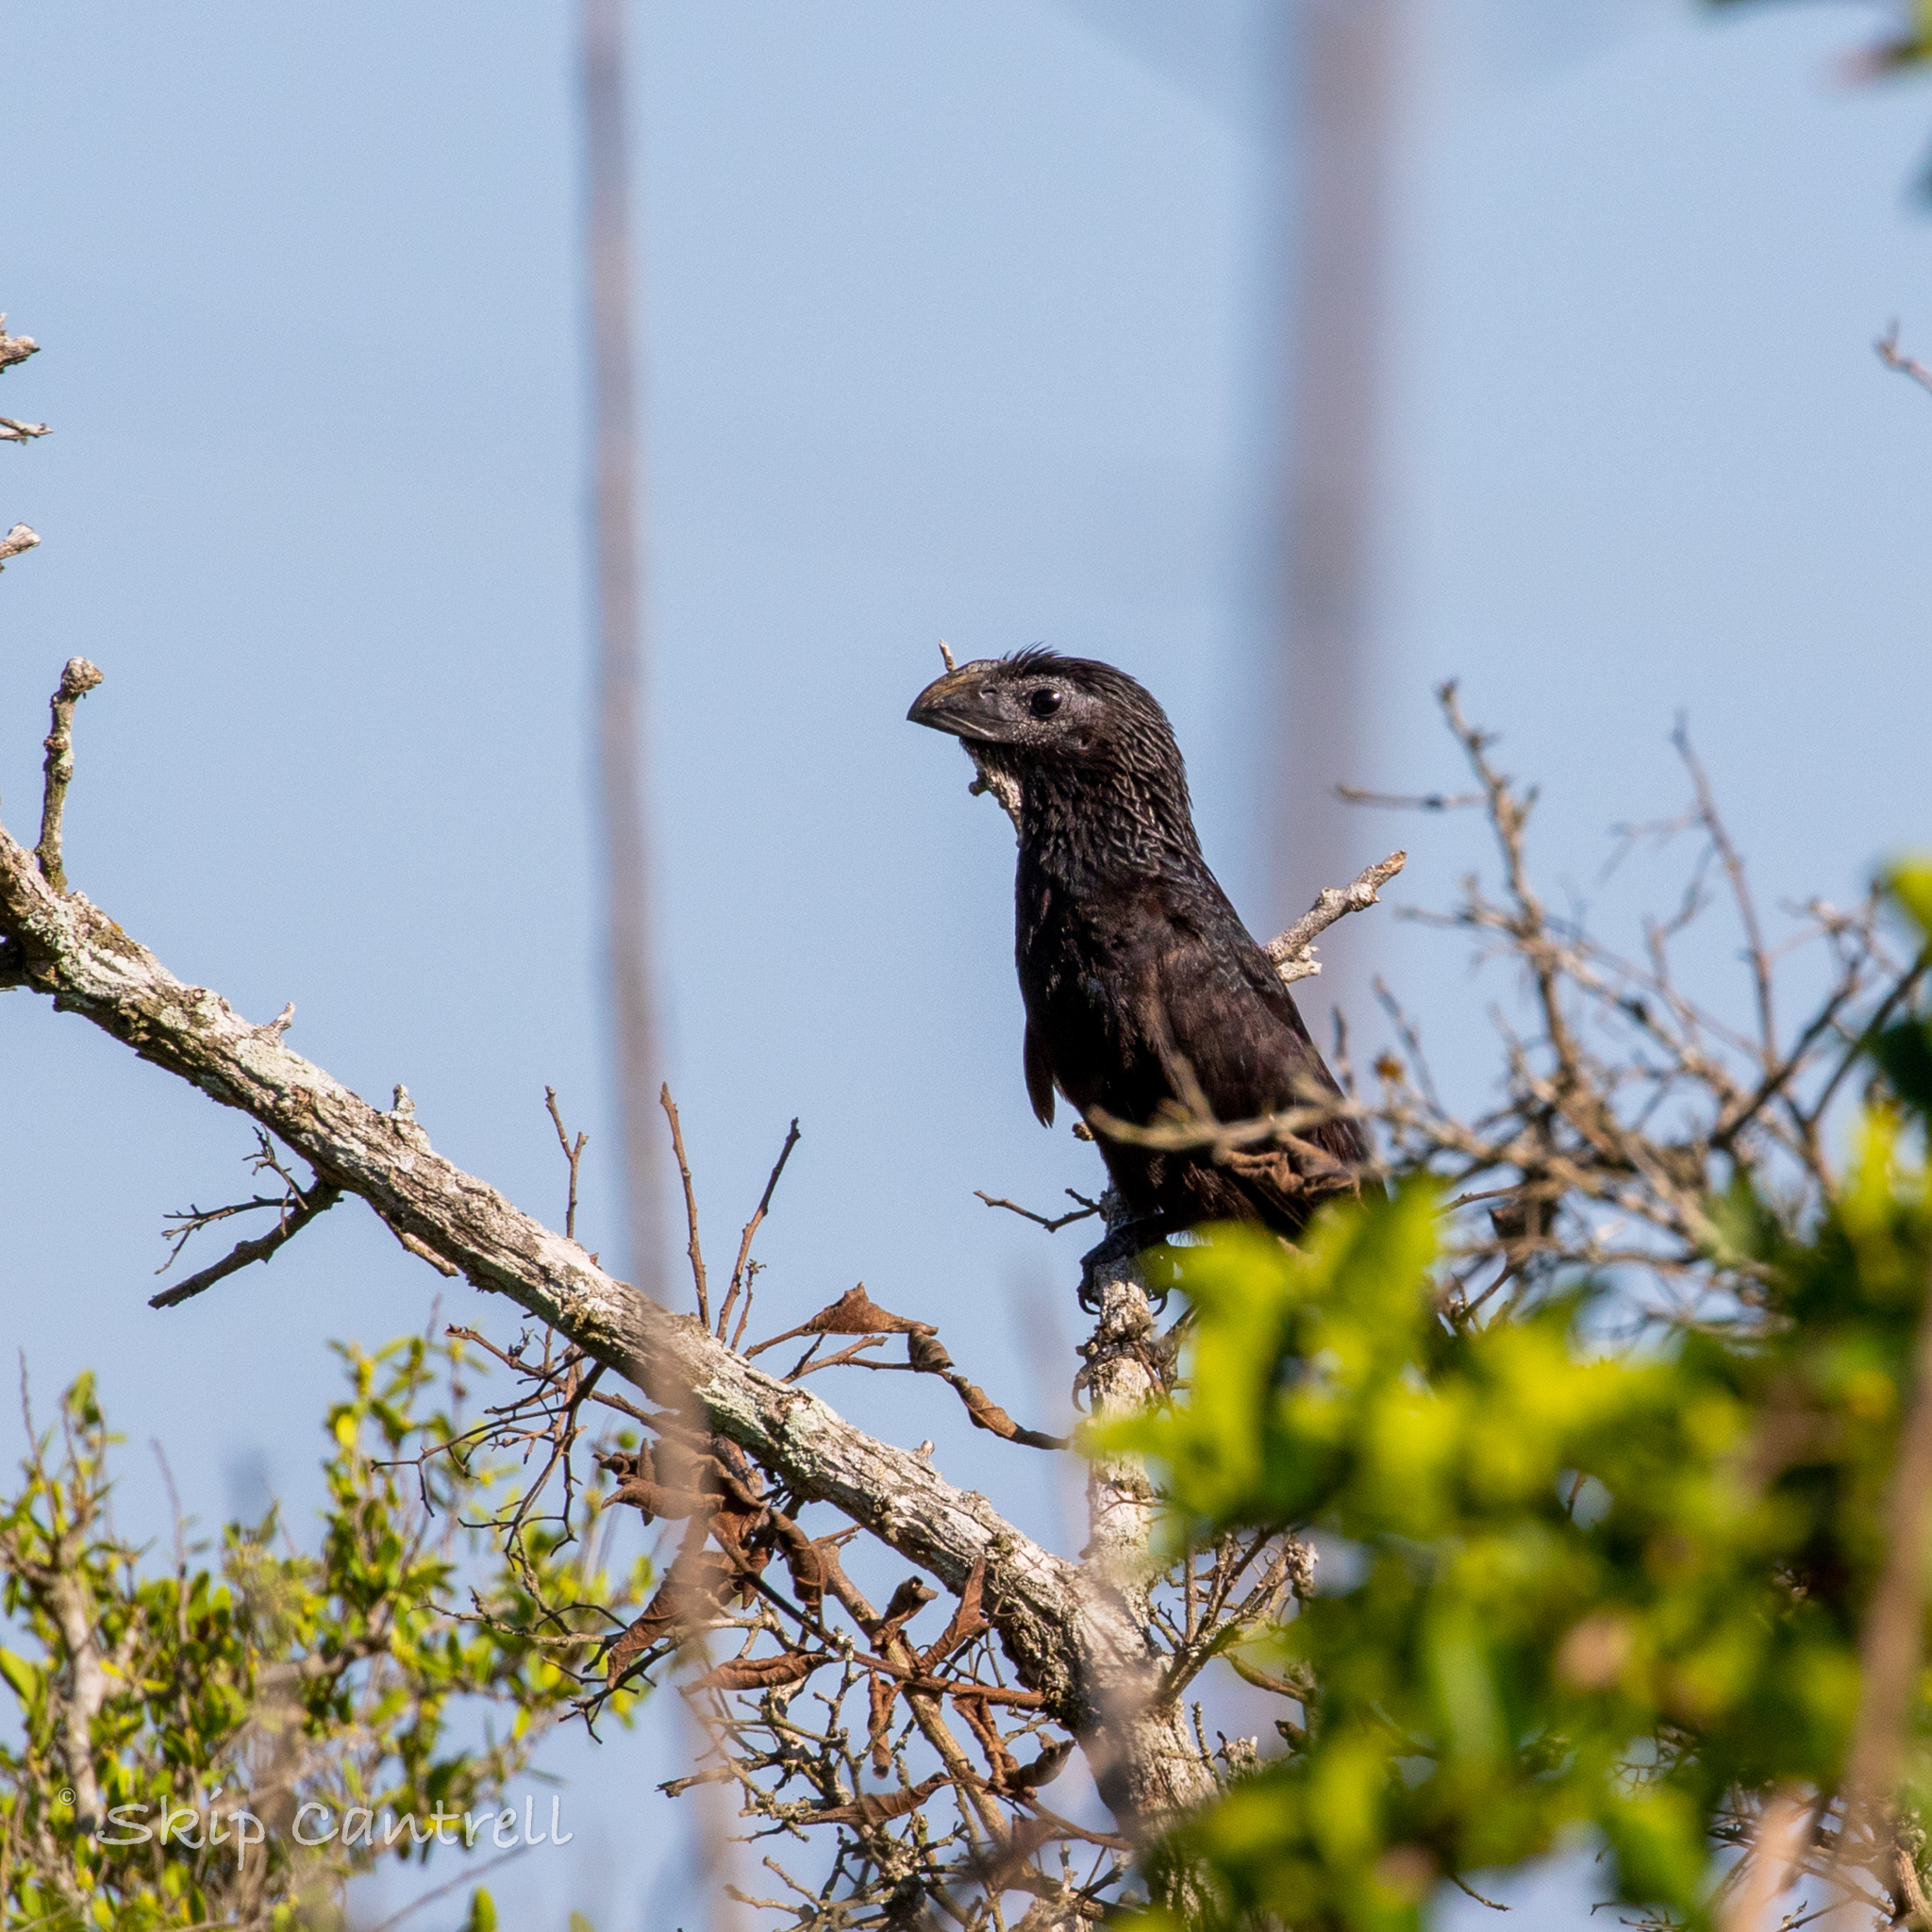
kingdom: Animalia
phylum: Chordata
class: Aves
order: Cuculiformes
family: Cuculidae
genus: Crotophaga
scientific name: Crotophaga sulcirostris
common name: Groove-billed ani
